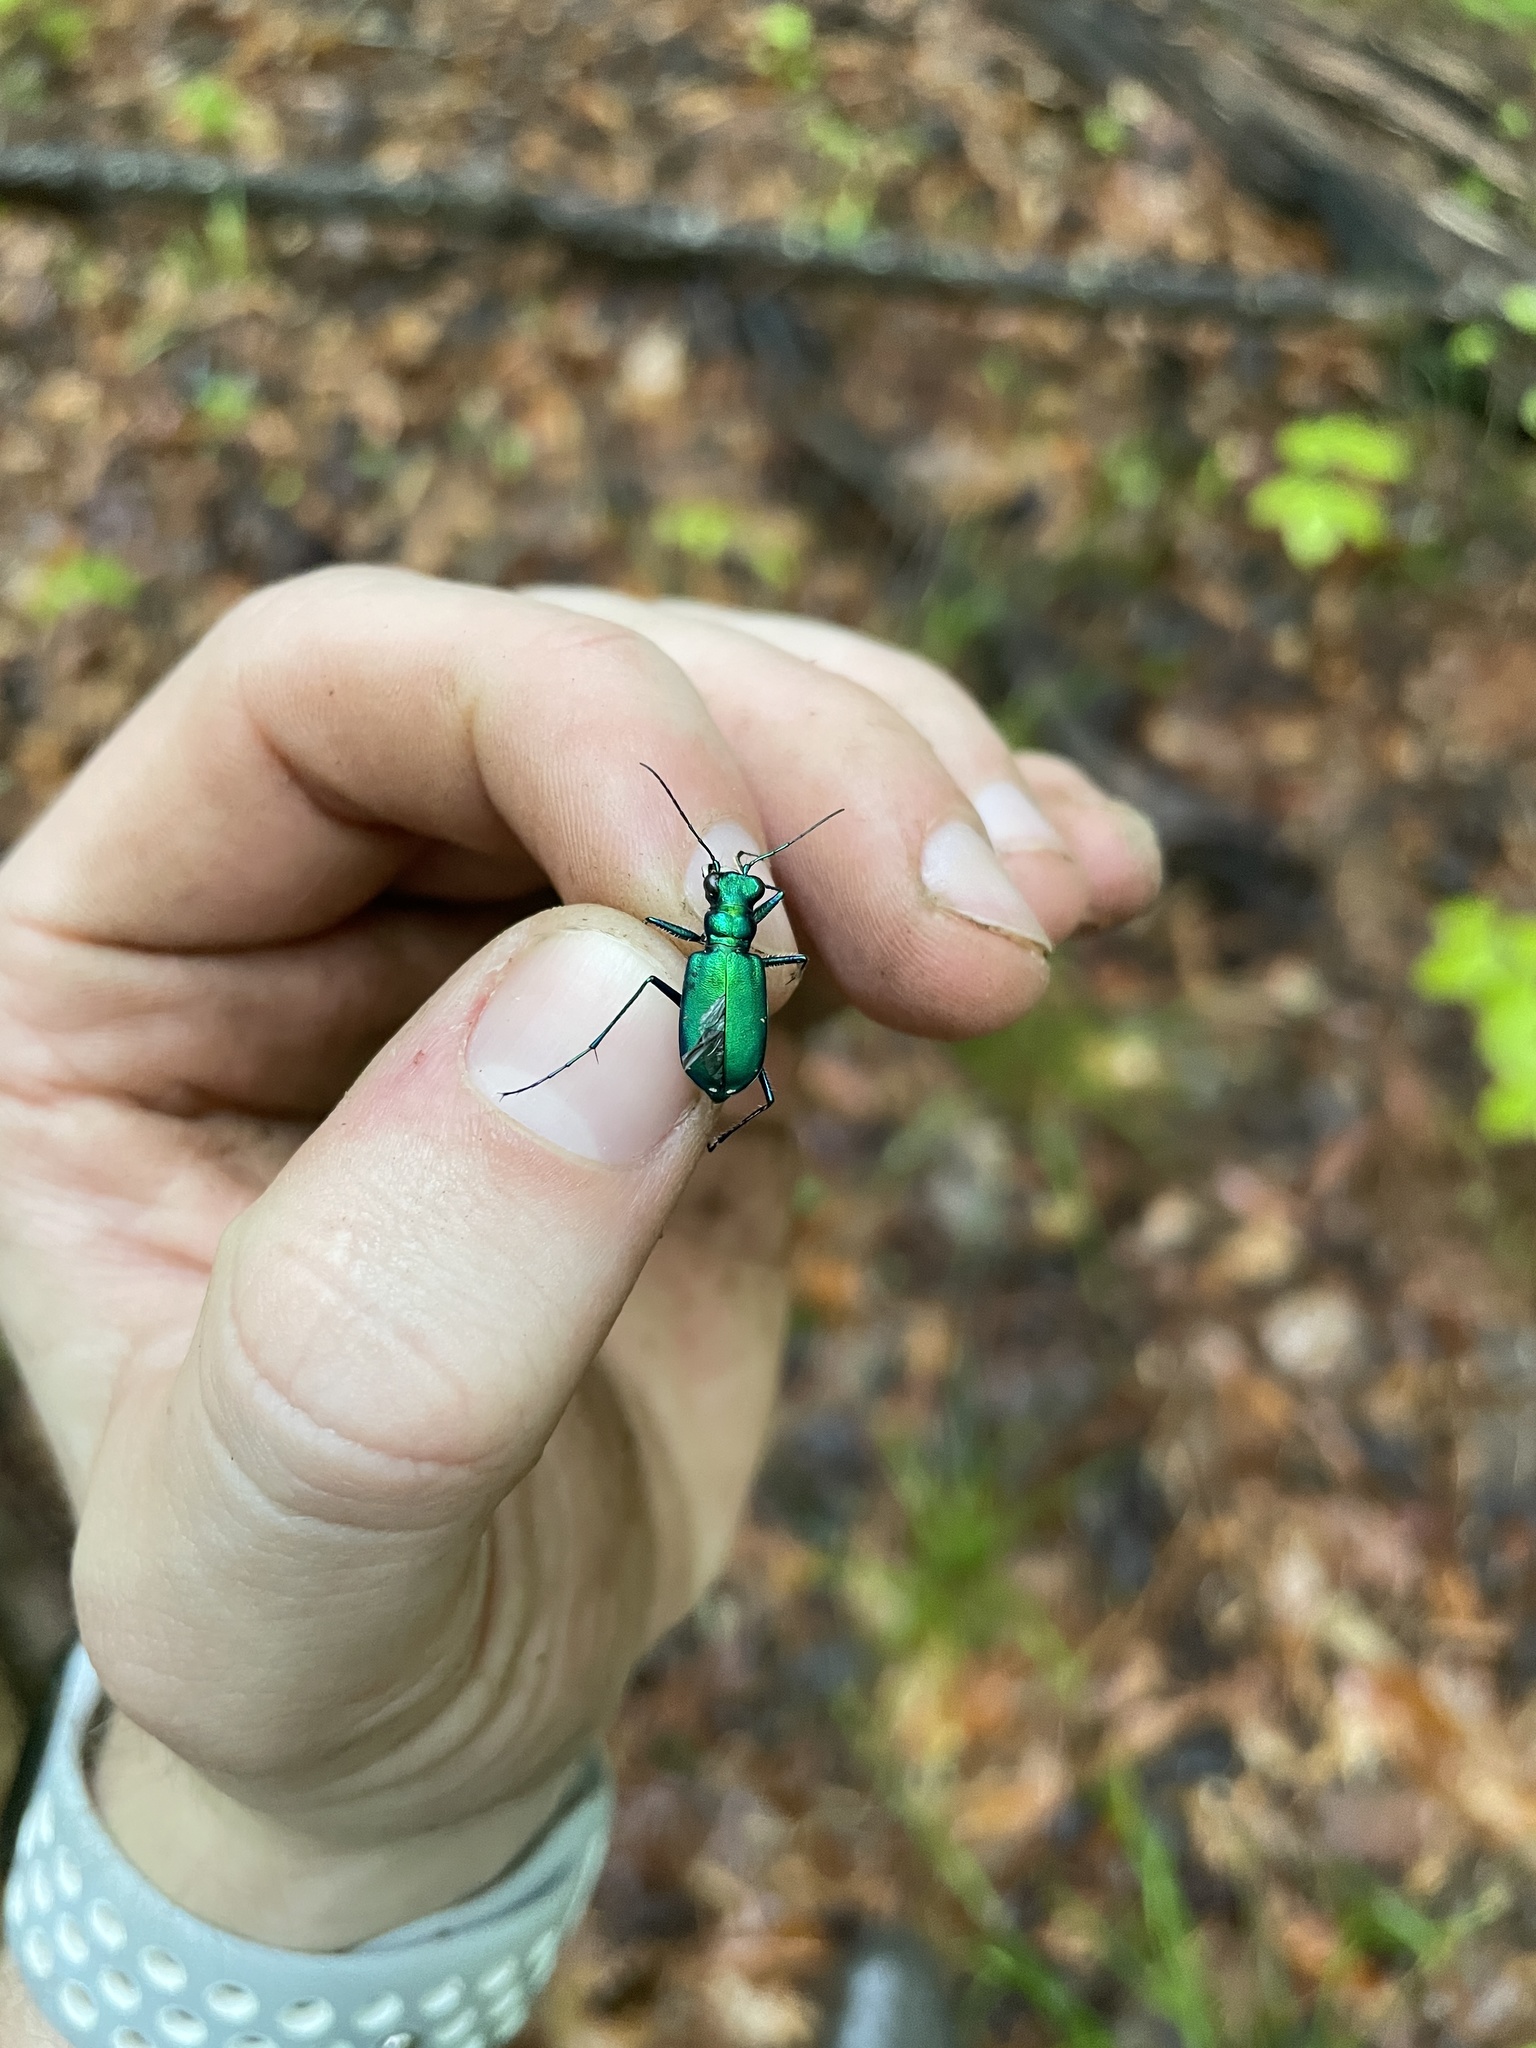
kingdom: Animalia
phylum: Arthropoda
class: Insecta
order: Coleoptera
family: Carabidae
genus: Cicindela
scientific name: Cicindela sexguttata
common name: Six-spotted tiger beetle
